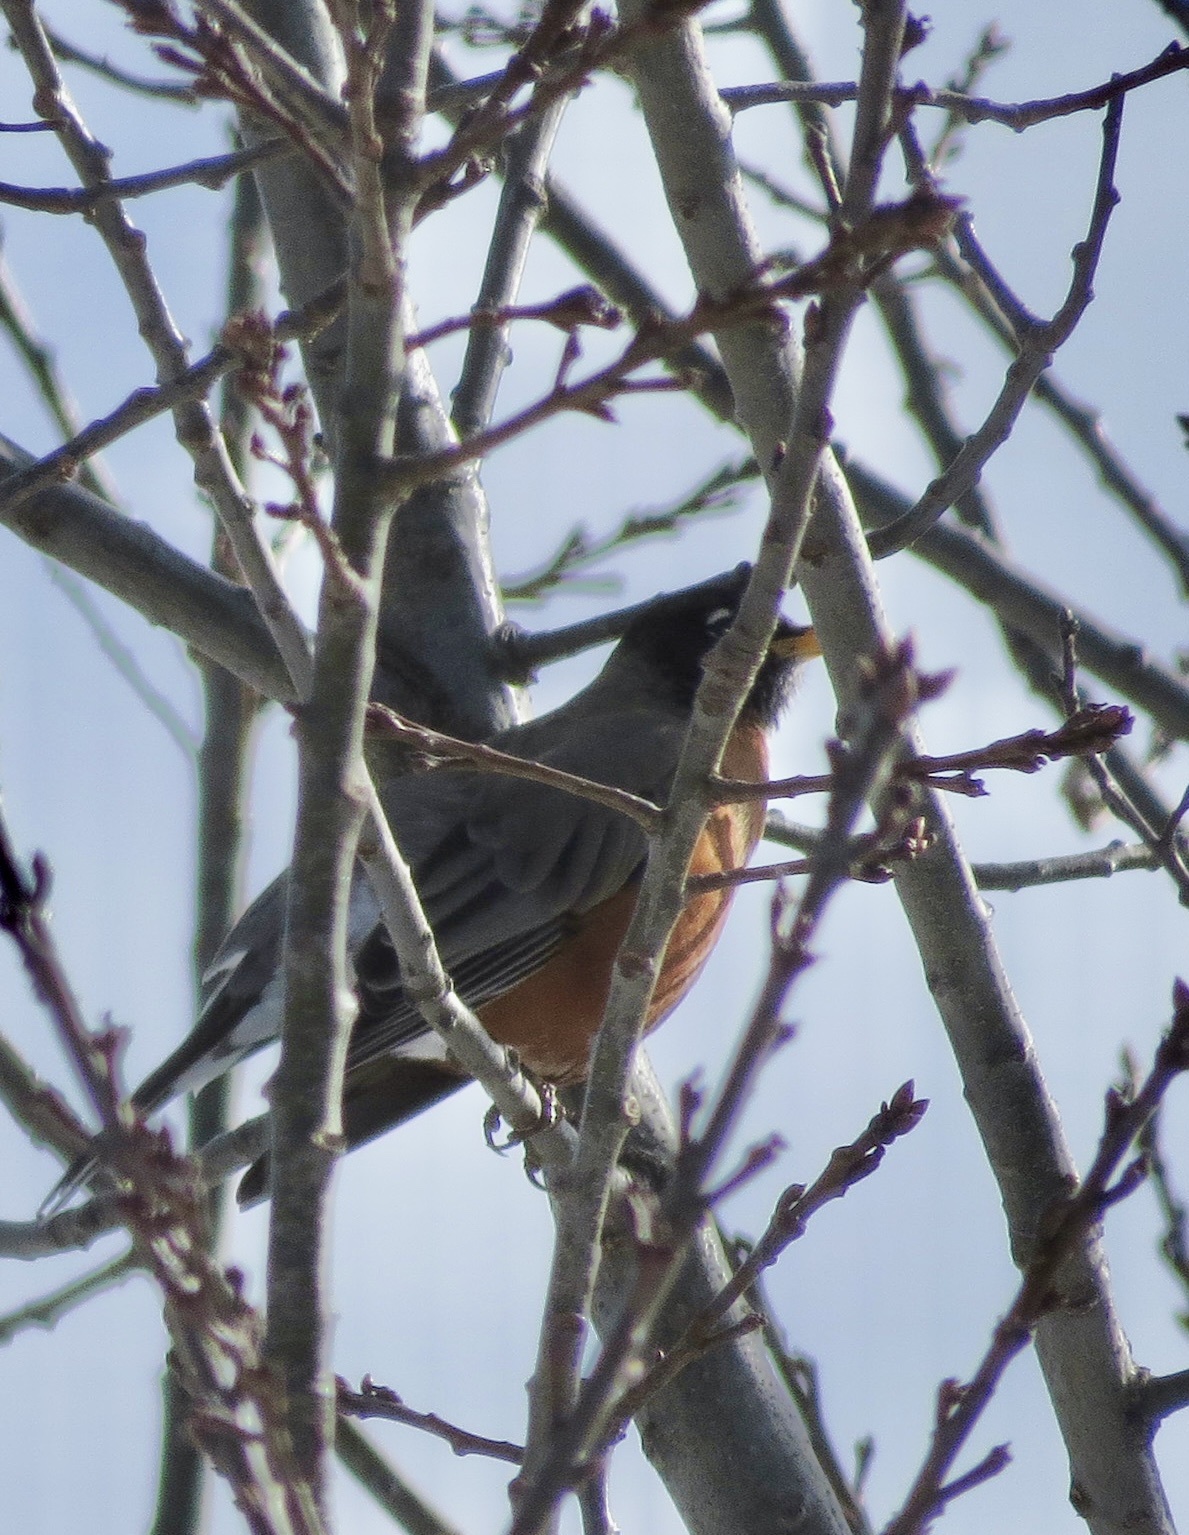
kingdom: Animalia
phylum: Chordata
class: Aves
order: Passeriformes
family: Turdidae
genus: Turdus
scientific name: Turdus migratorius
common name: American robin
